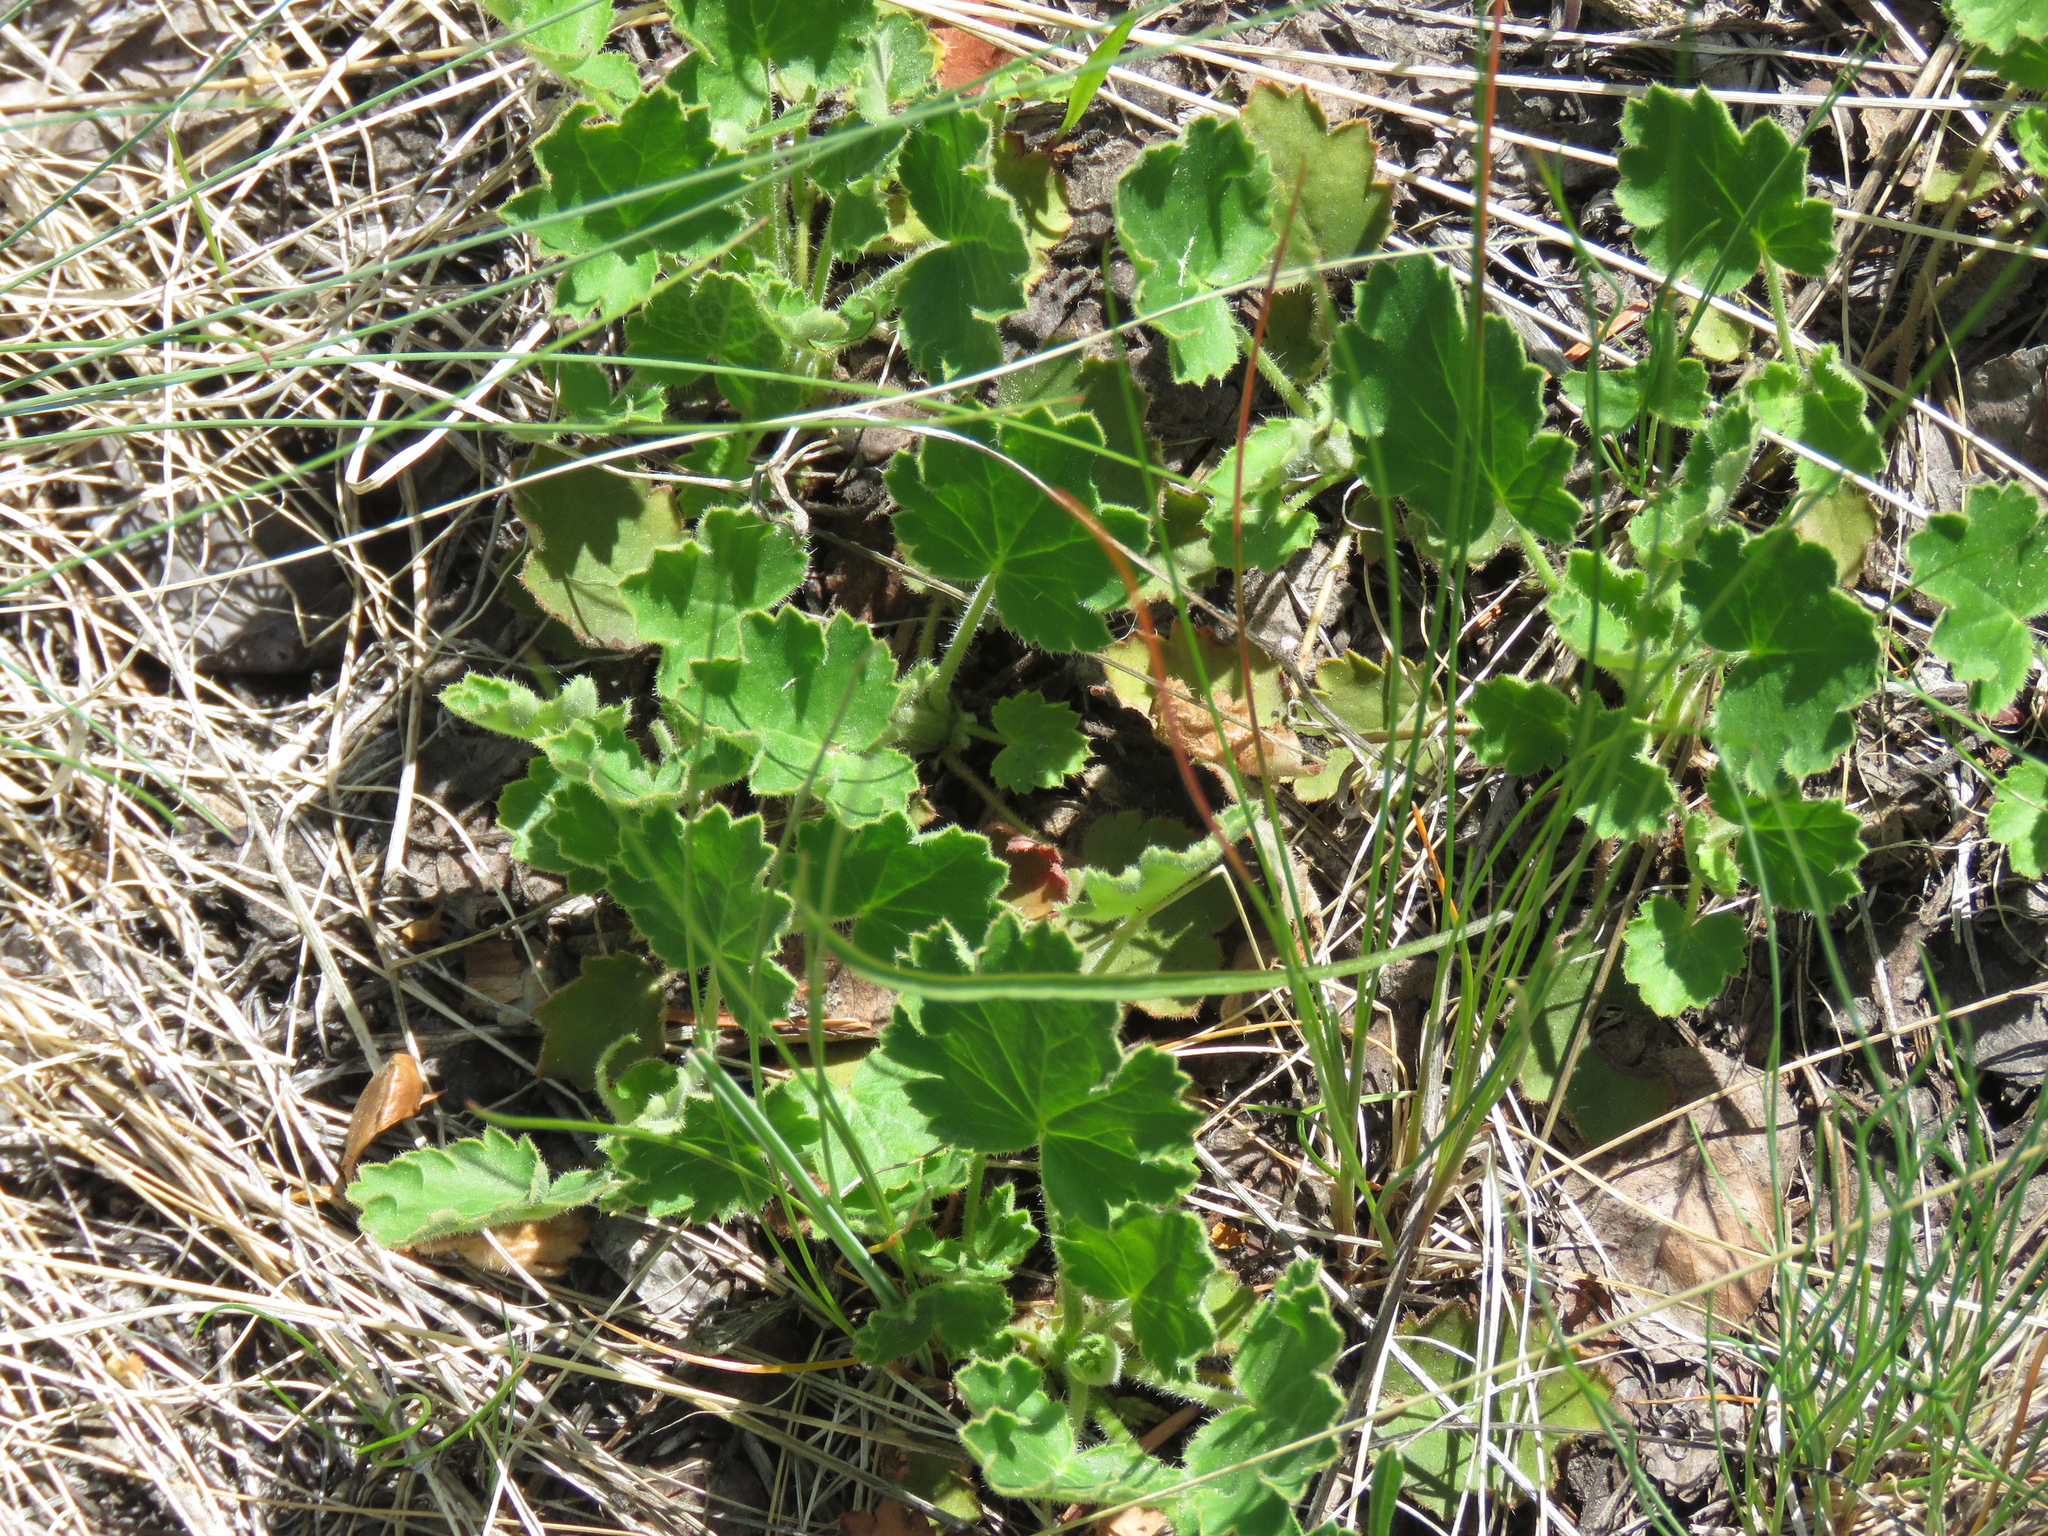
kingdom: Plantae
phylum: Tracheophyta
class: Magnoliopsida
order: Saxifragales
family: Saxifragaceae
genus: Heuchera
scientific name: Heuchera cylindrica
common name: Mat alumroot
